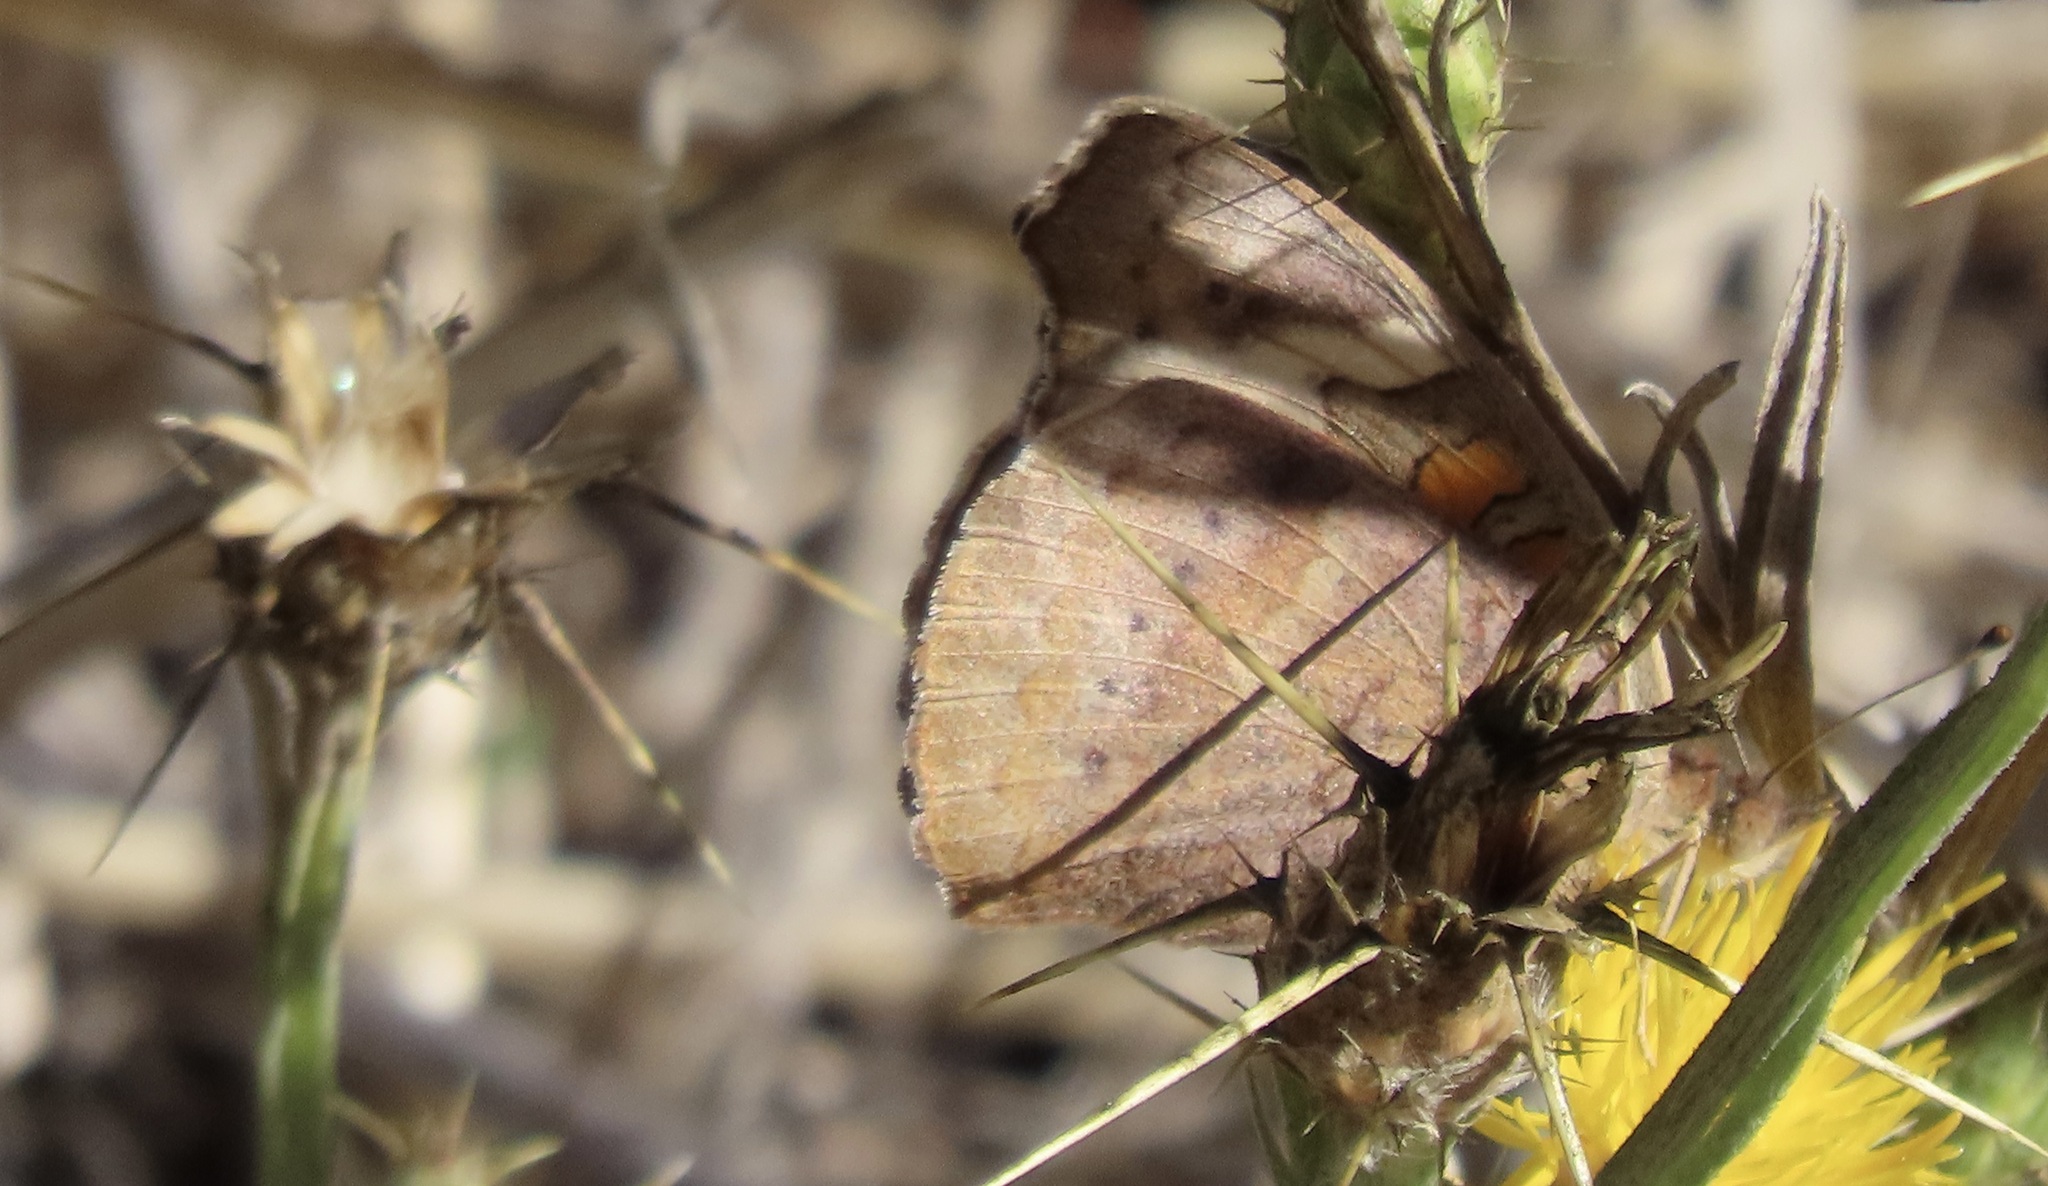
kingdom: Animalia
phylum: Arthropoda
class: Insecta
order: Lepidoptera
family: Nymphalidae
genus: Junonia
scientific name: Junonia grisea
